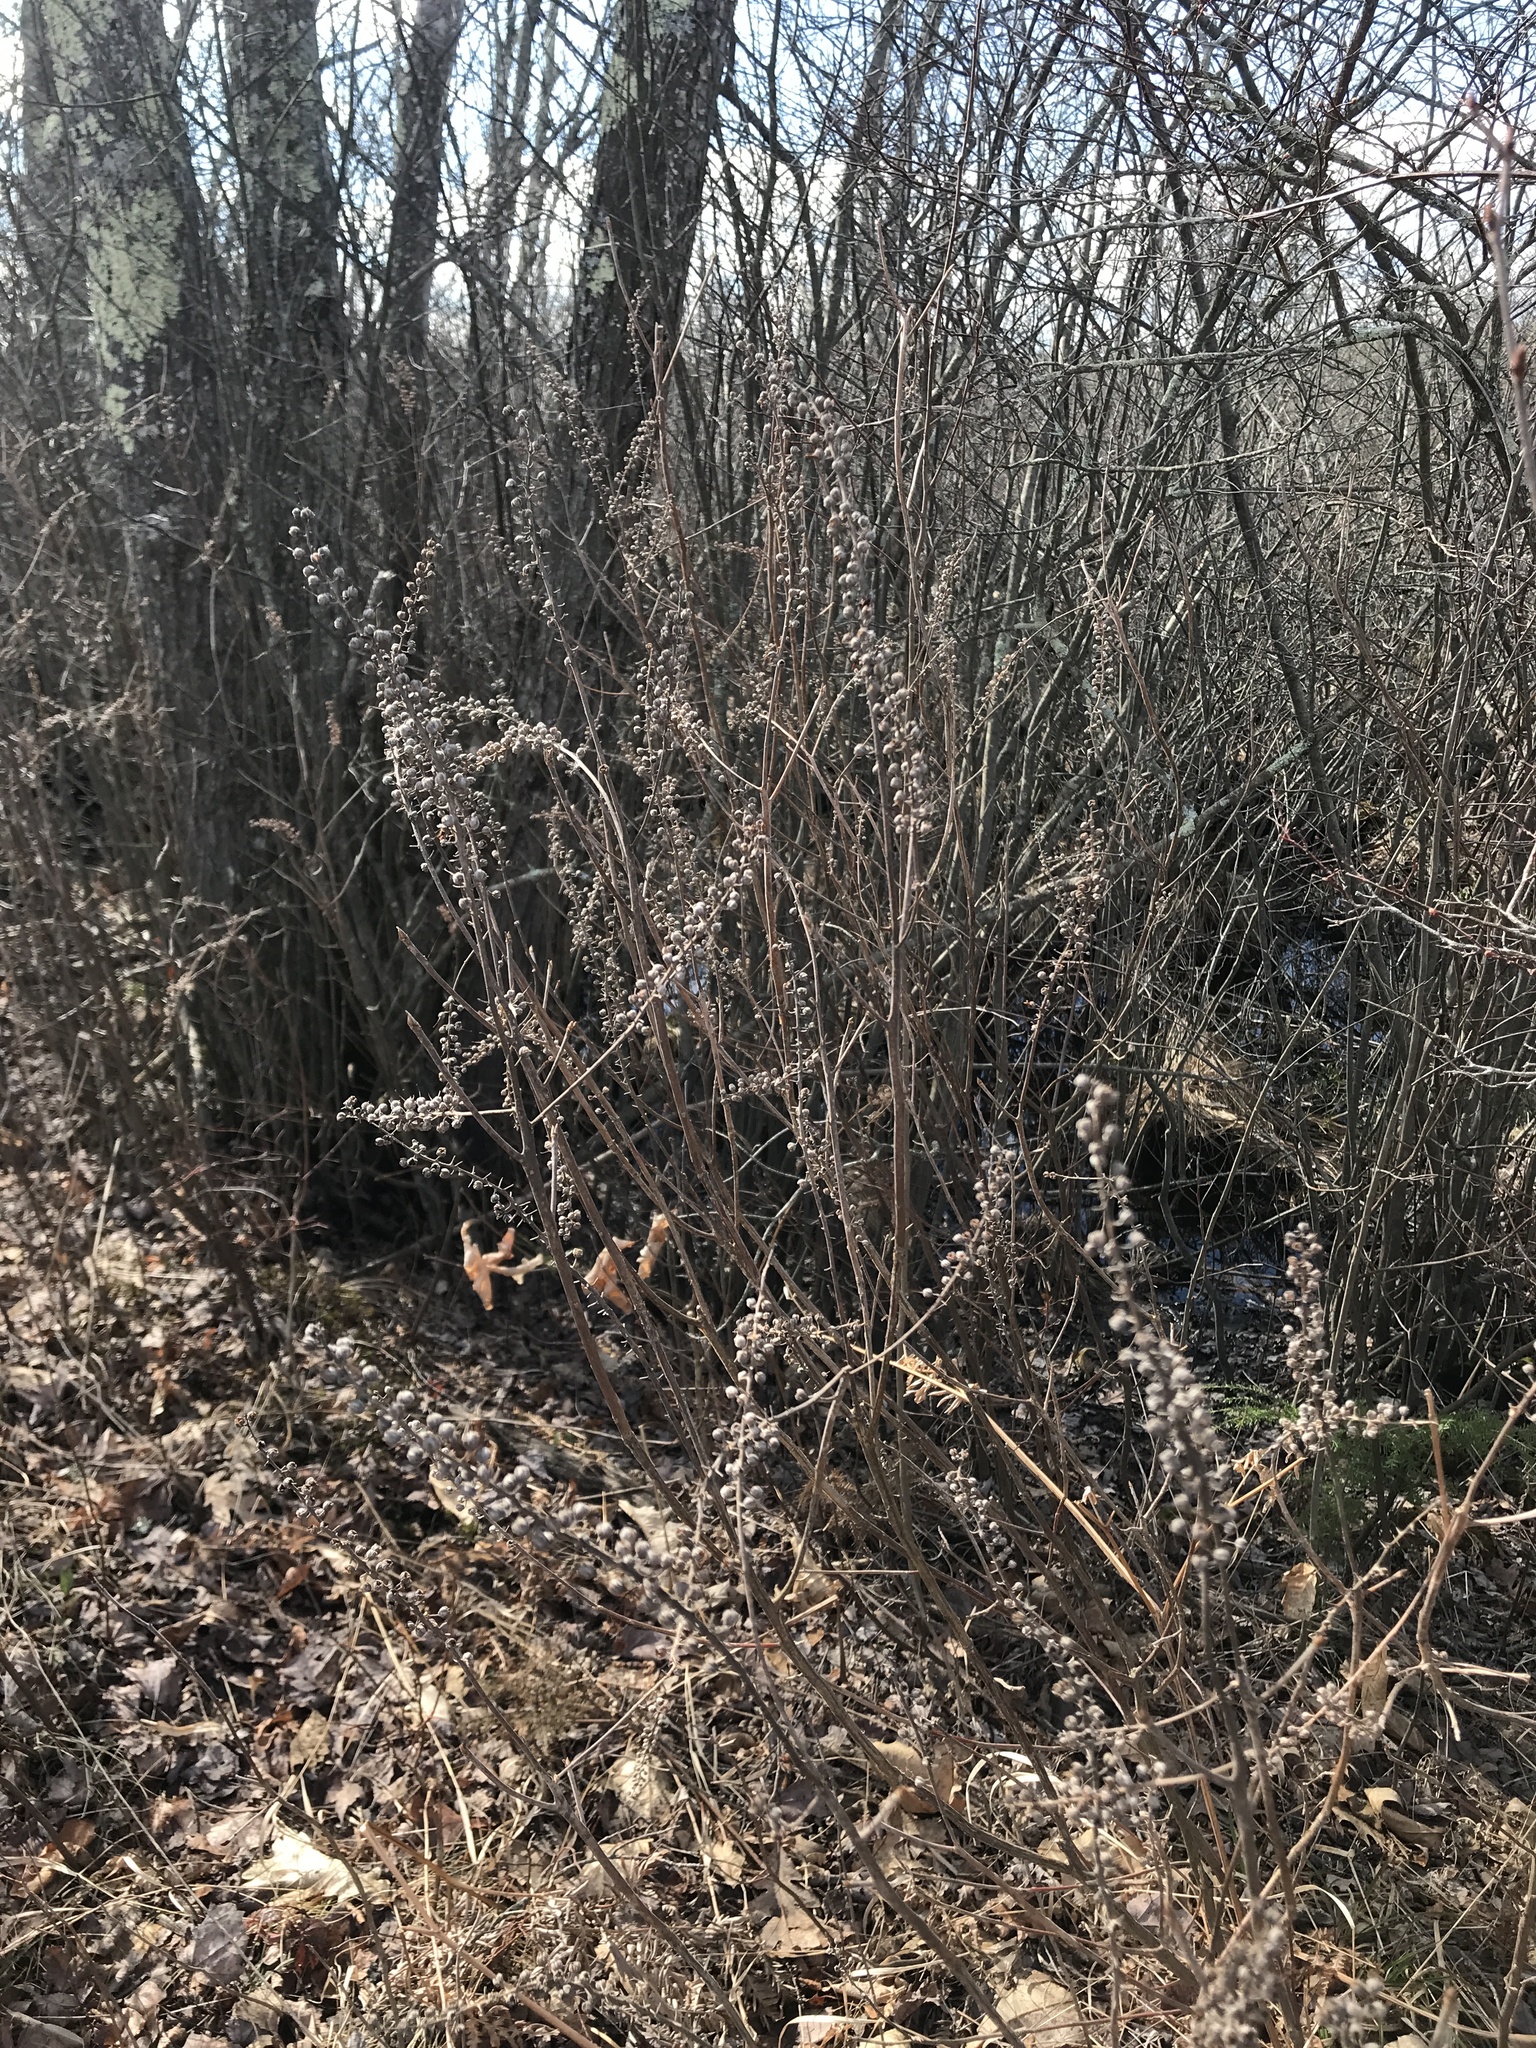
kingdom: Plantae
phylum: Tracheophyta
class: Magnoliopsida
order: Ericales
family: Clethraceae
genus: Clethra
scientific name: Clethra alnifolia
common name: Sweet pepperbush
